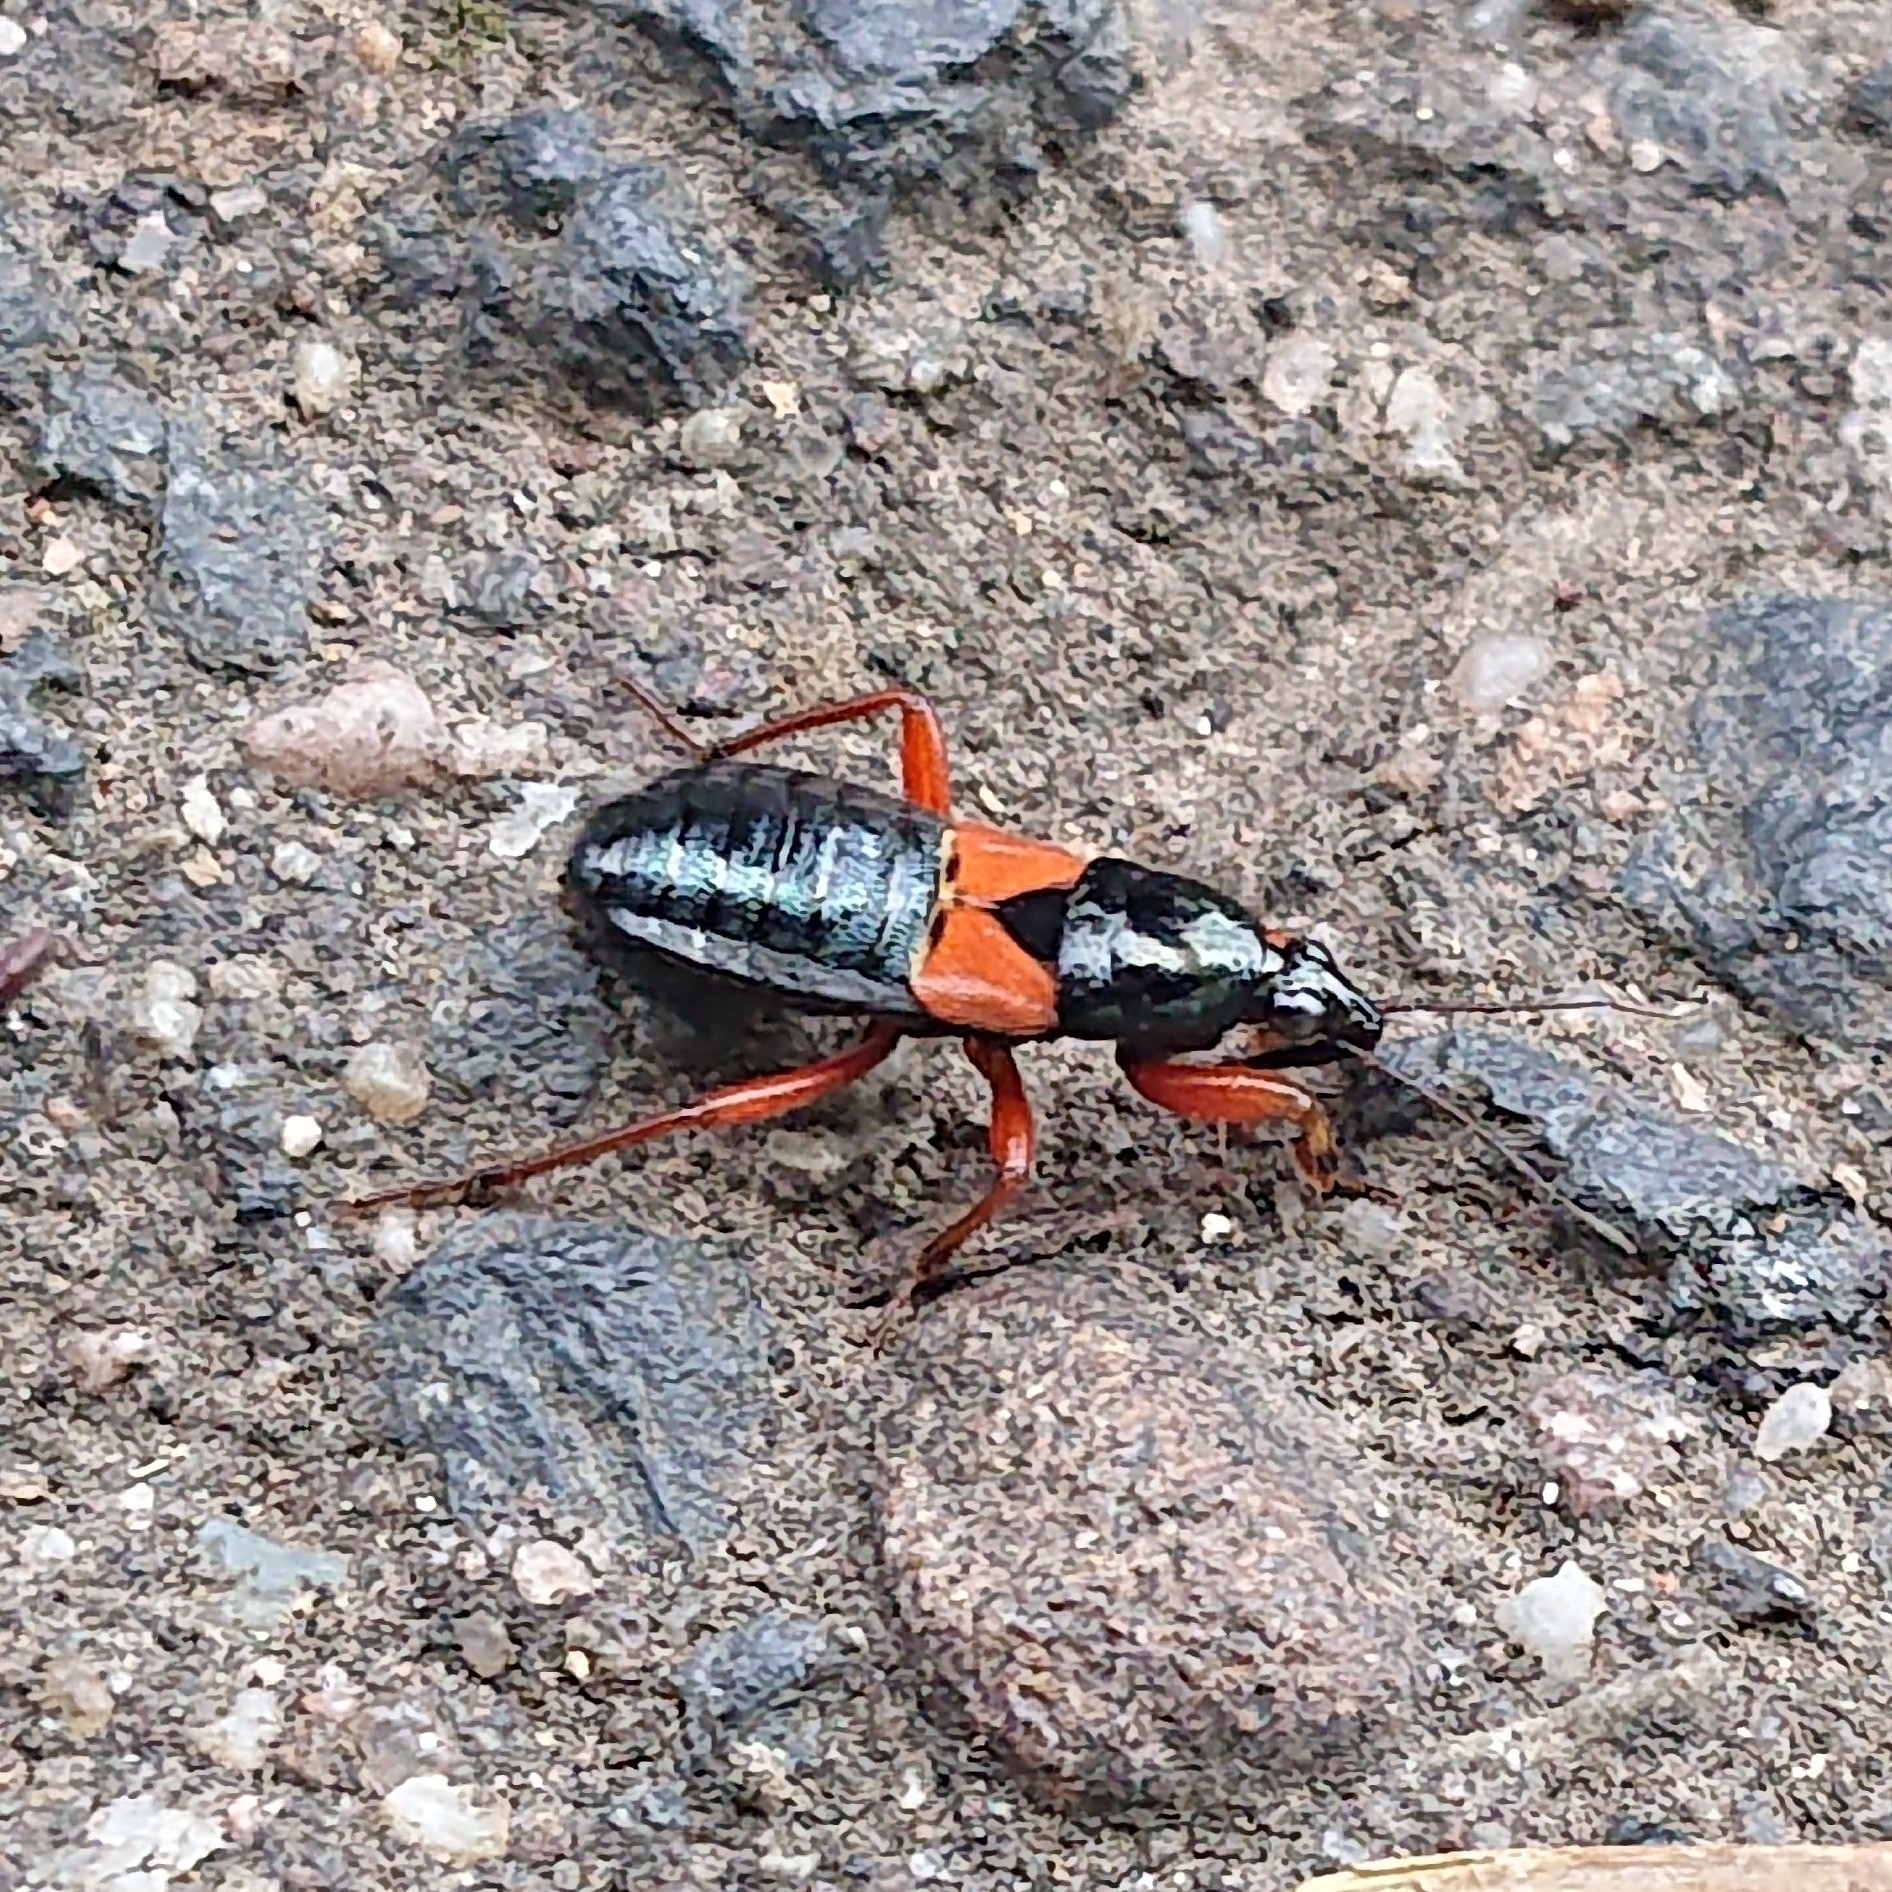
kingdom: Animalia
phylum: Arthropoda
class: Insecta
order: Hemiptera
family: Nabidae
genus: Prostemma
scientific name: Prostemma guttula
